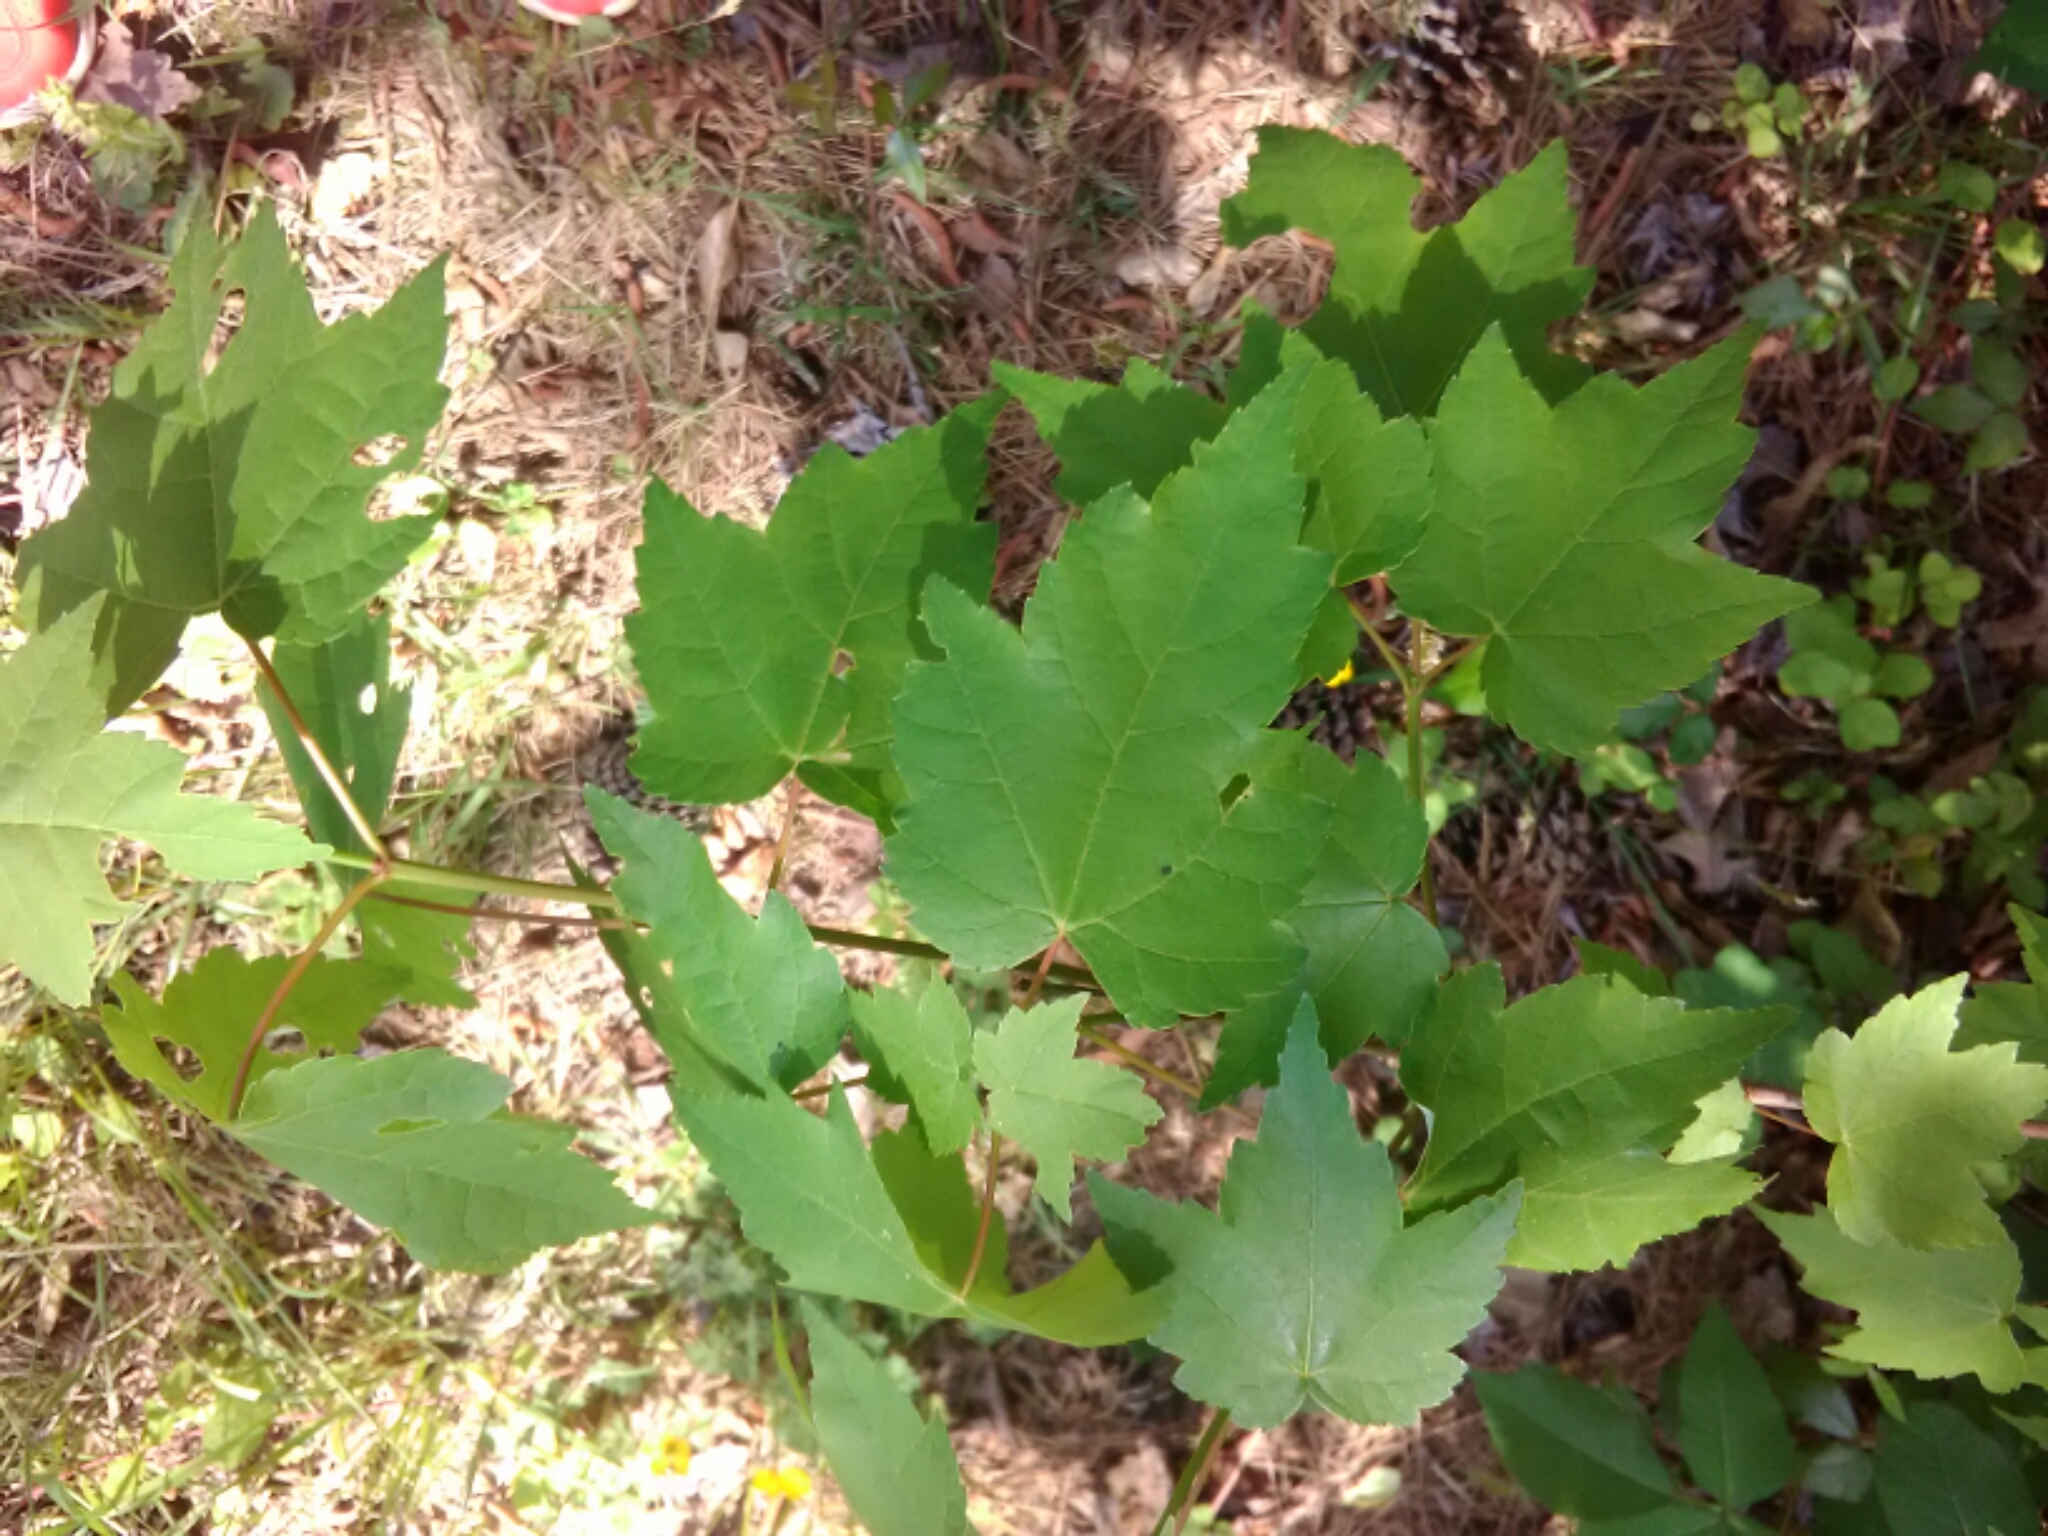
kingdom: Plantae
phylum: Tracheophyta
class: Magnoliopsida
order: Sapindales
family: Sapindaceae
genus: Acer
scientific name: Acer rubrum
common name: Red maple
